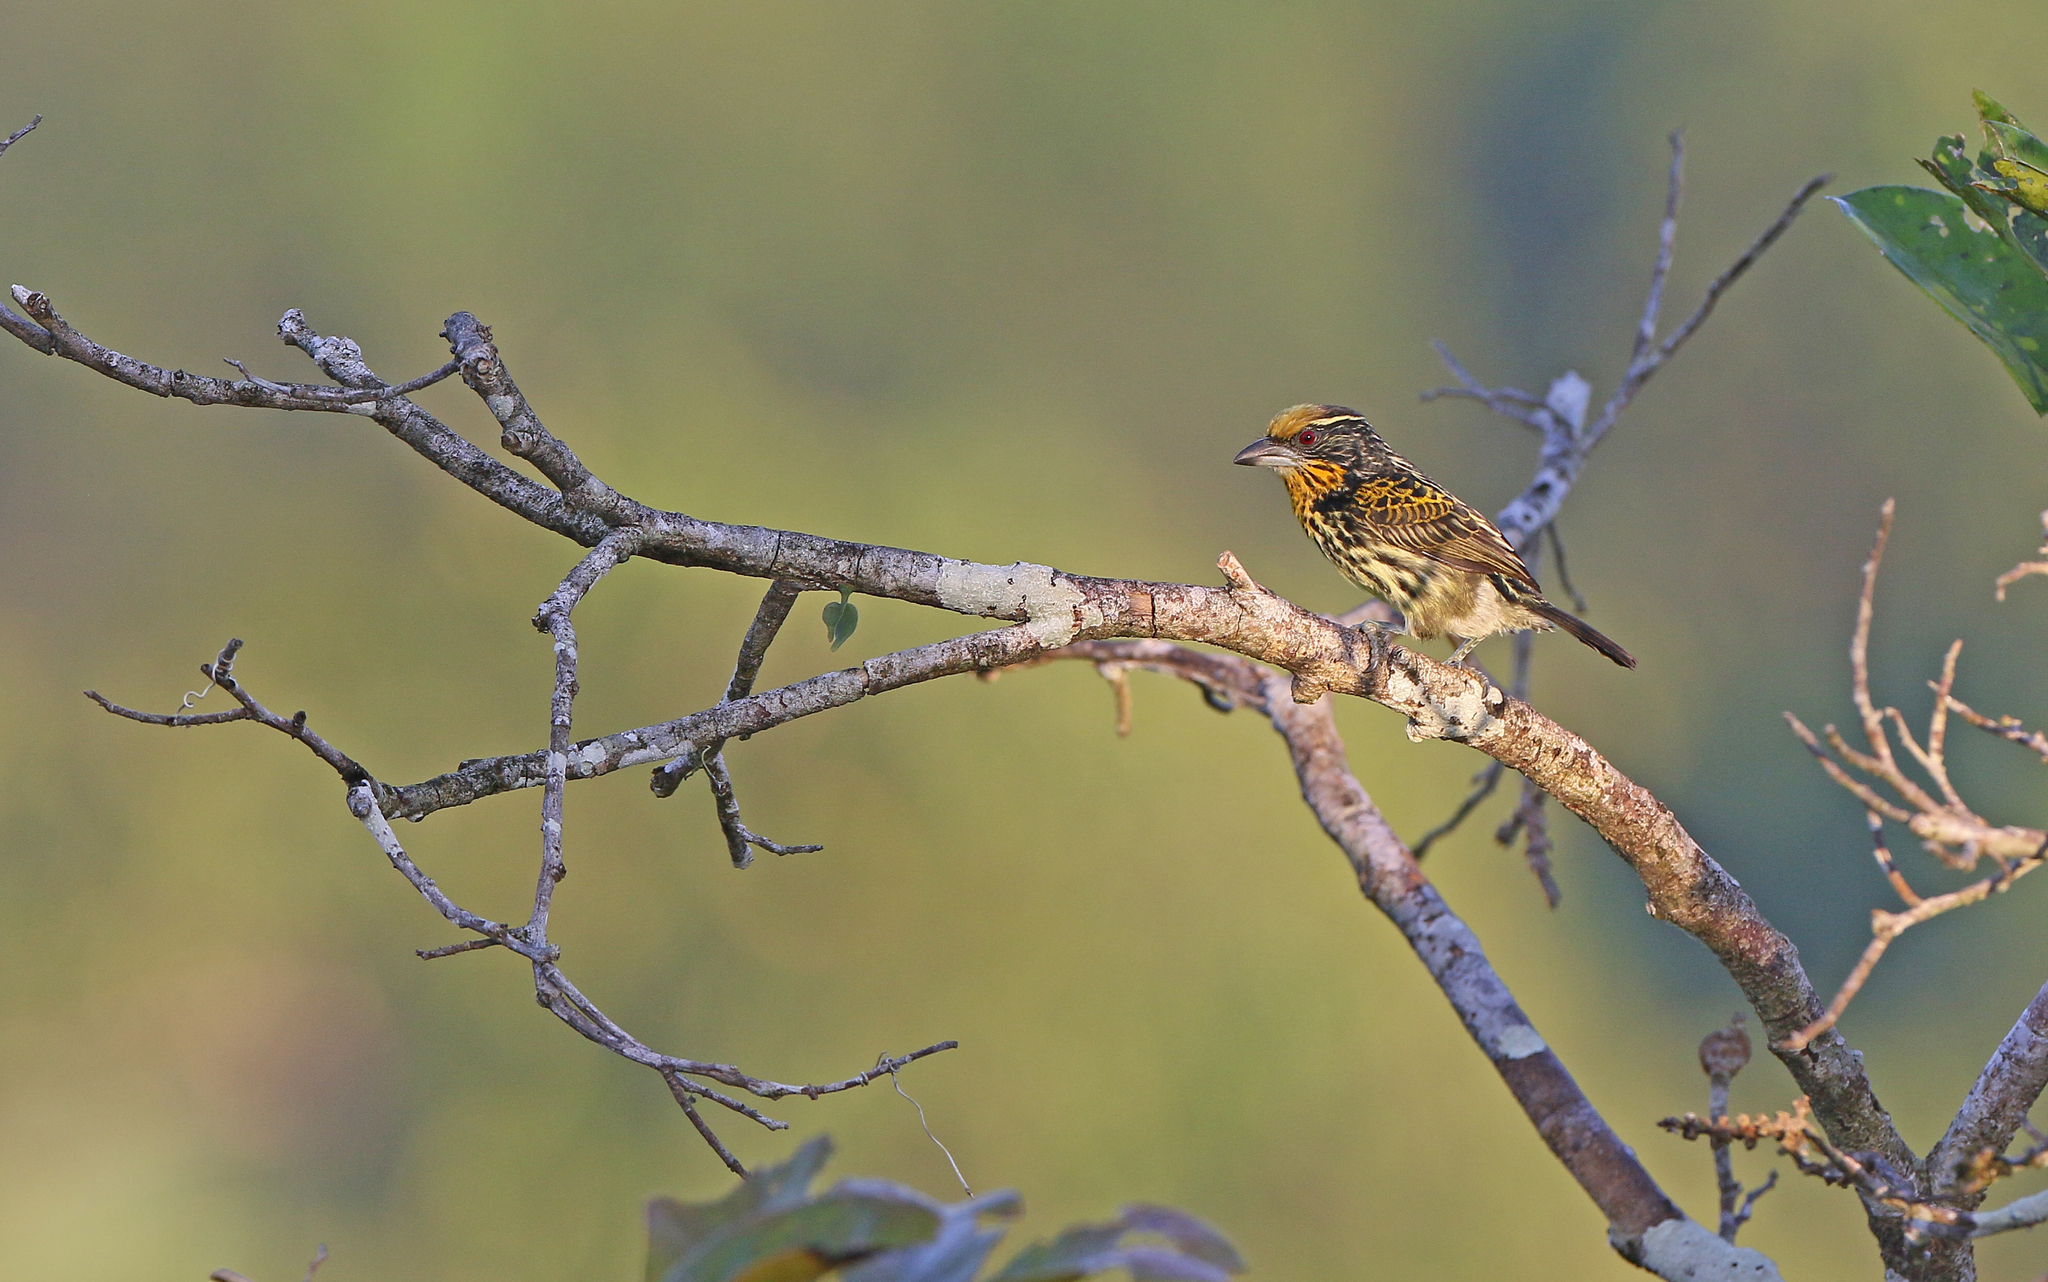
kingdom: Animalia
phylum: Chordata
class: Aves
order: Piciformes
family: Capitonidae
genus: Capito
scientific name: Capito auratus
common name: Gilded barbet
